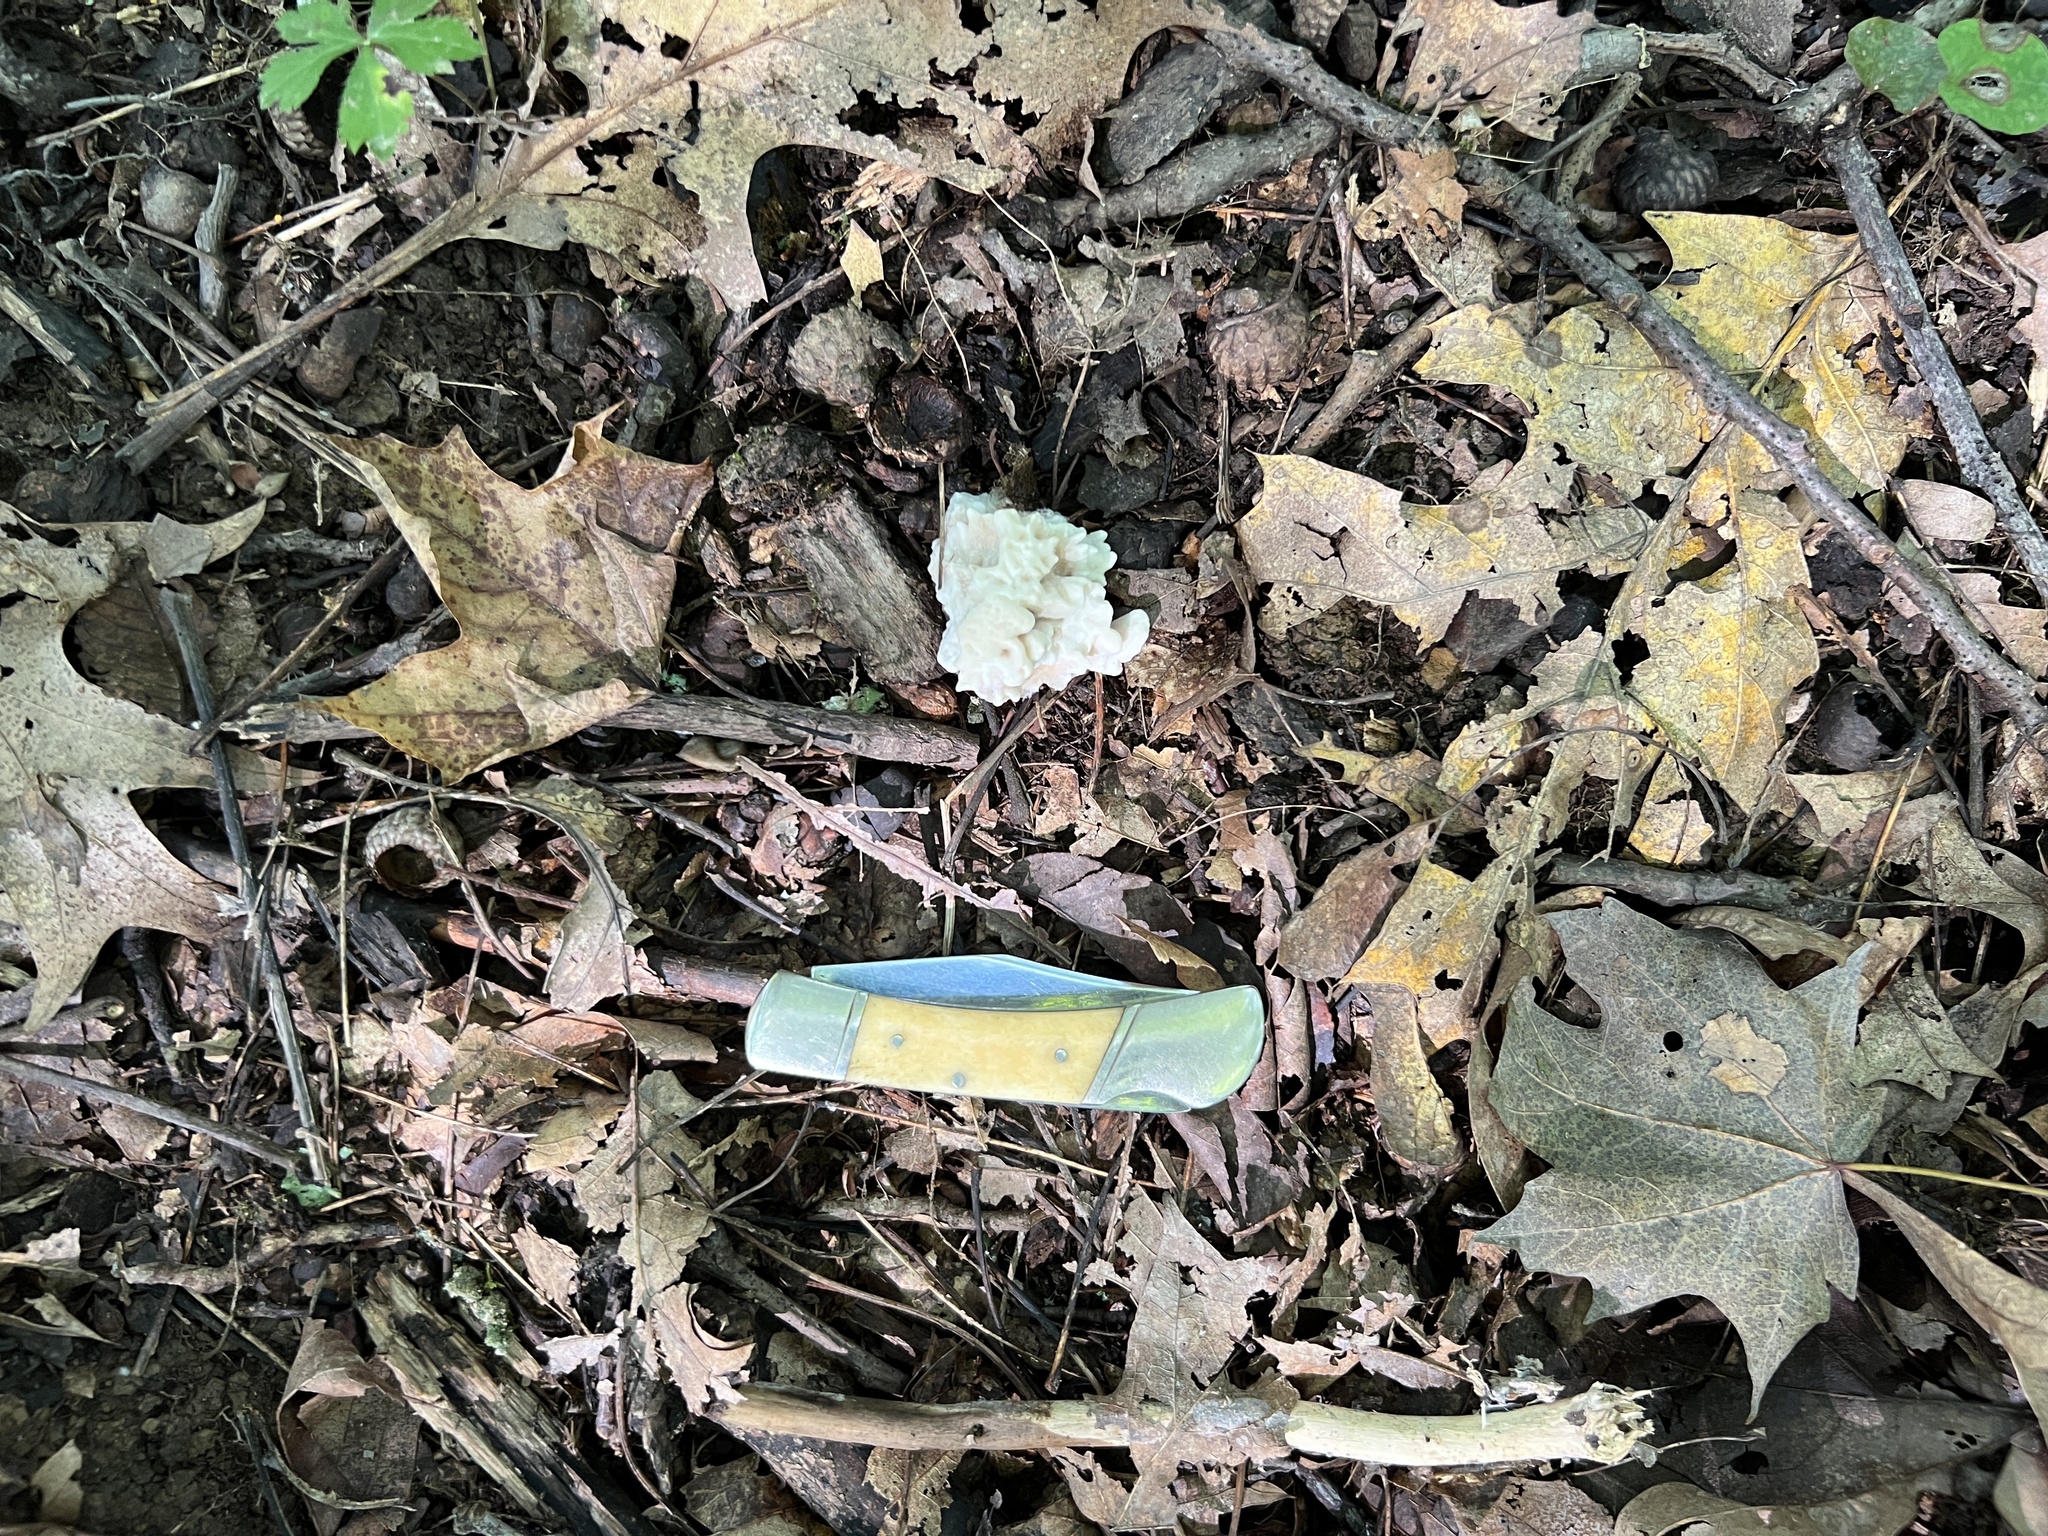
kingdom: Fungi
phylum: Basidiomycota
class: Agaricomycetes
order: Polyporales
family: Sparassidaceae
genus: Sparassis
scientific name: Sparassis spathulata
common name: Eastern cauliflower mushroom
